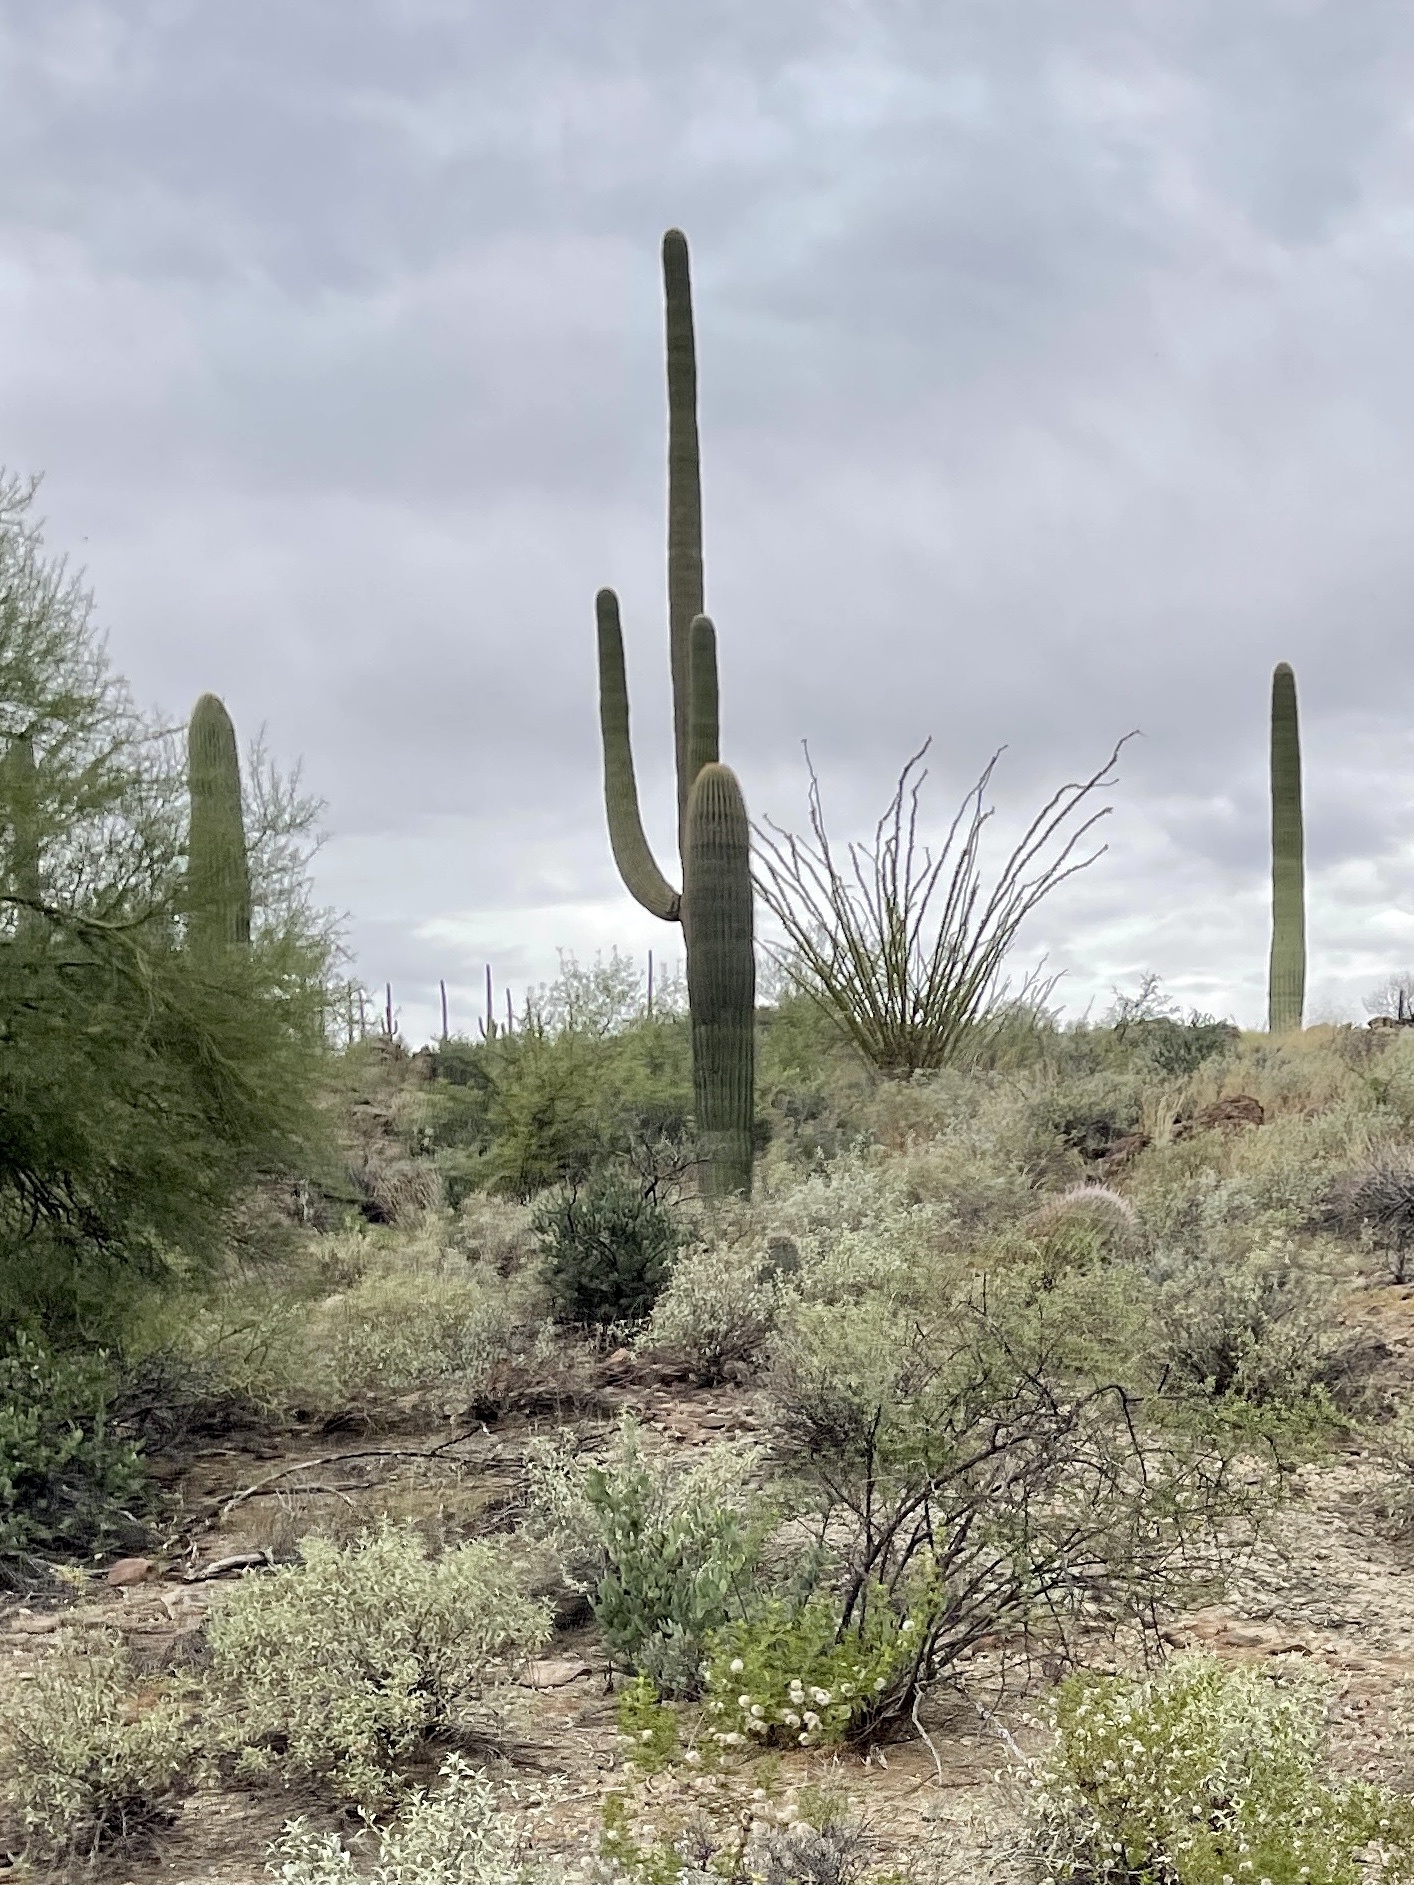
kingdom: Plantae
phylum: Tracheophyta
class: Magnoliopsida
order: Caryophyllales
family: Cactaceae
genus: Carnegiea
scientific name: Carnegiea gigantea
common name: Saguaro
